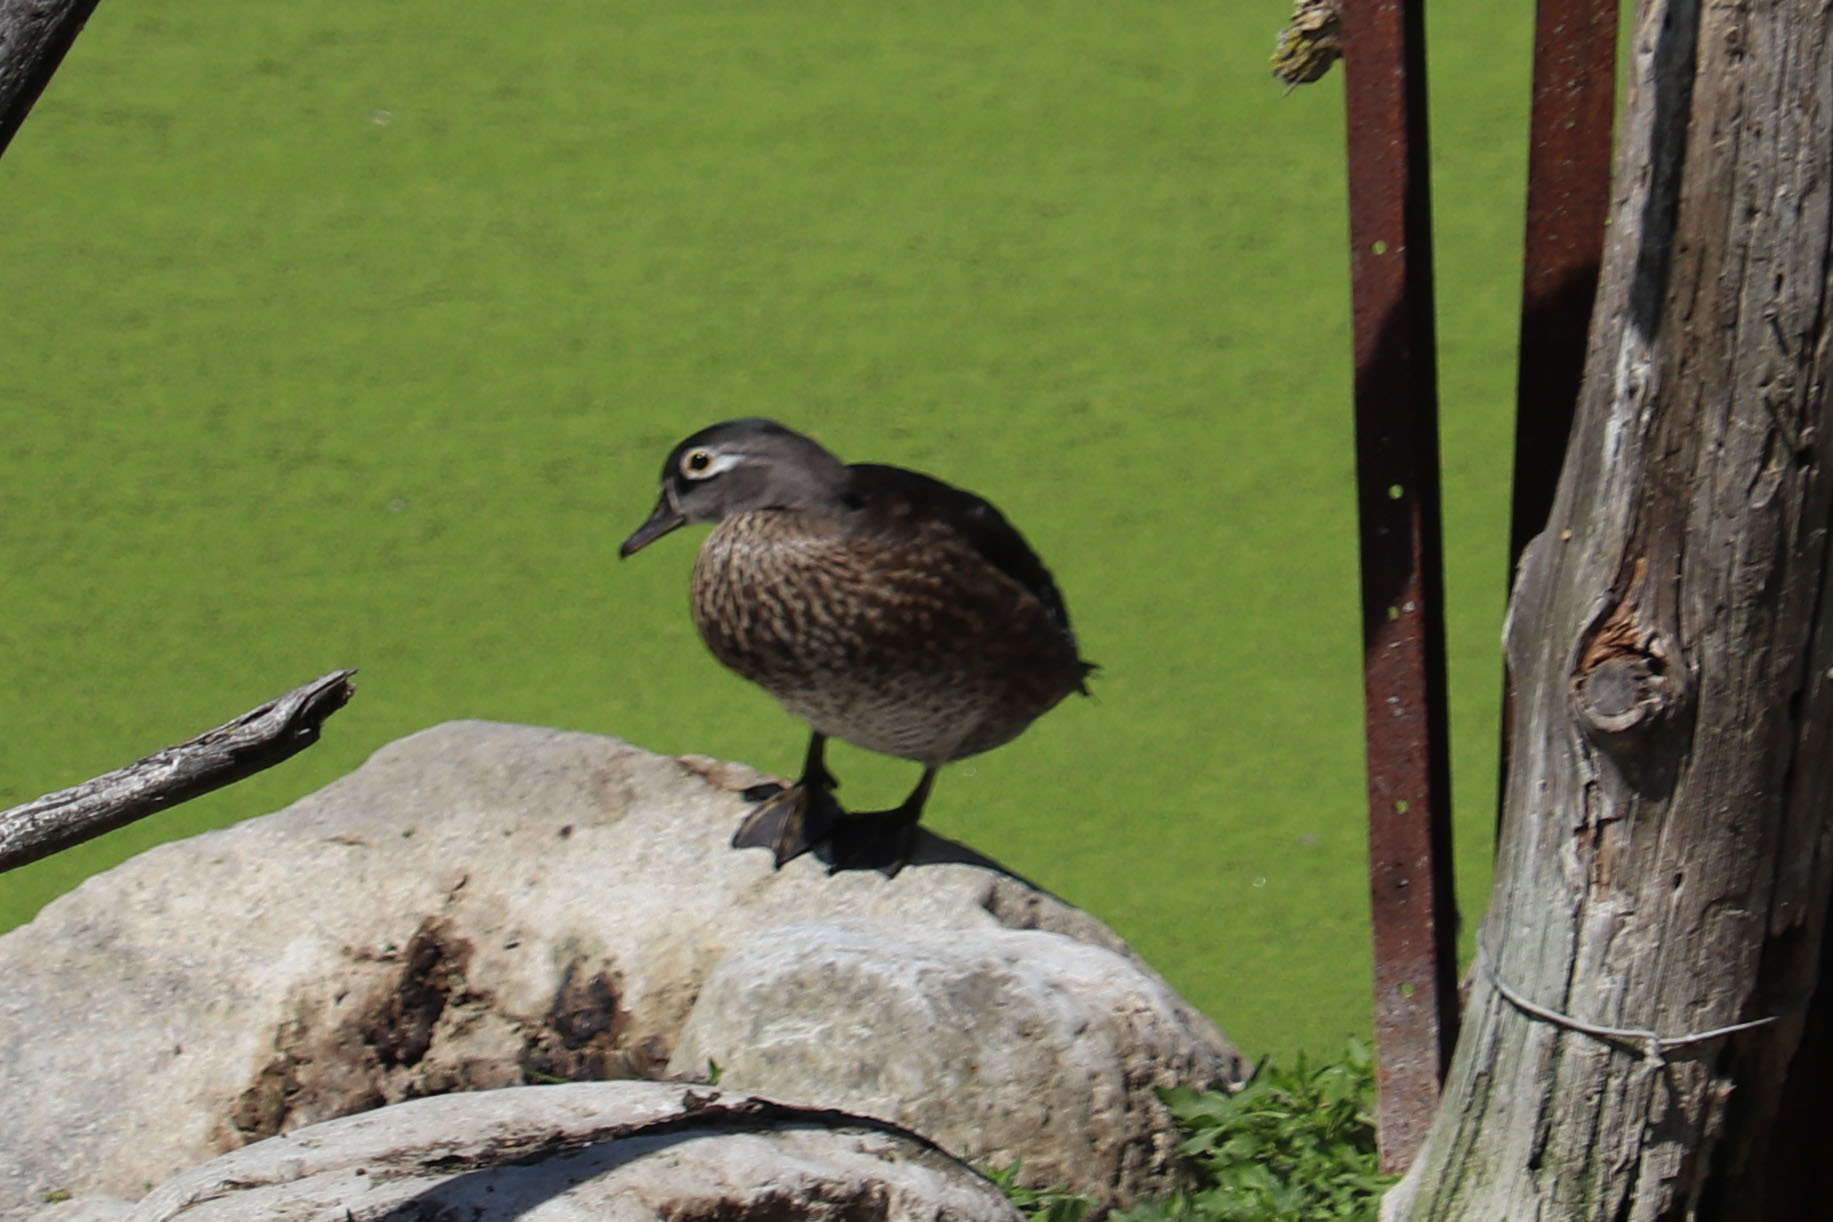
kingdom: Animalia
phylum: Chordata
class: Aves
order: Anseriformes
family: Anatidae
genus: Aix
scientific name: Aix sponsa
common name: Wood duck
